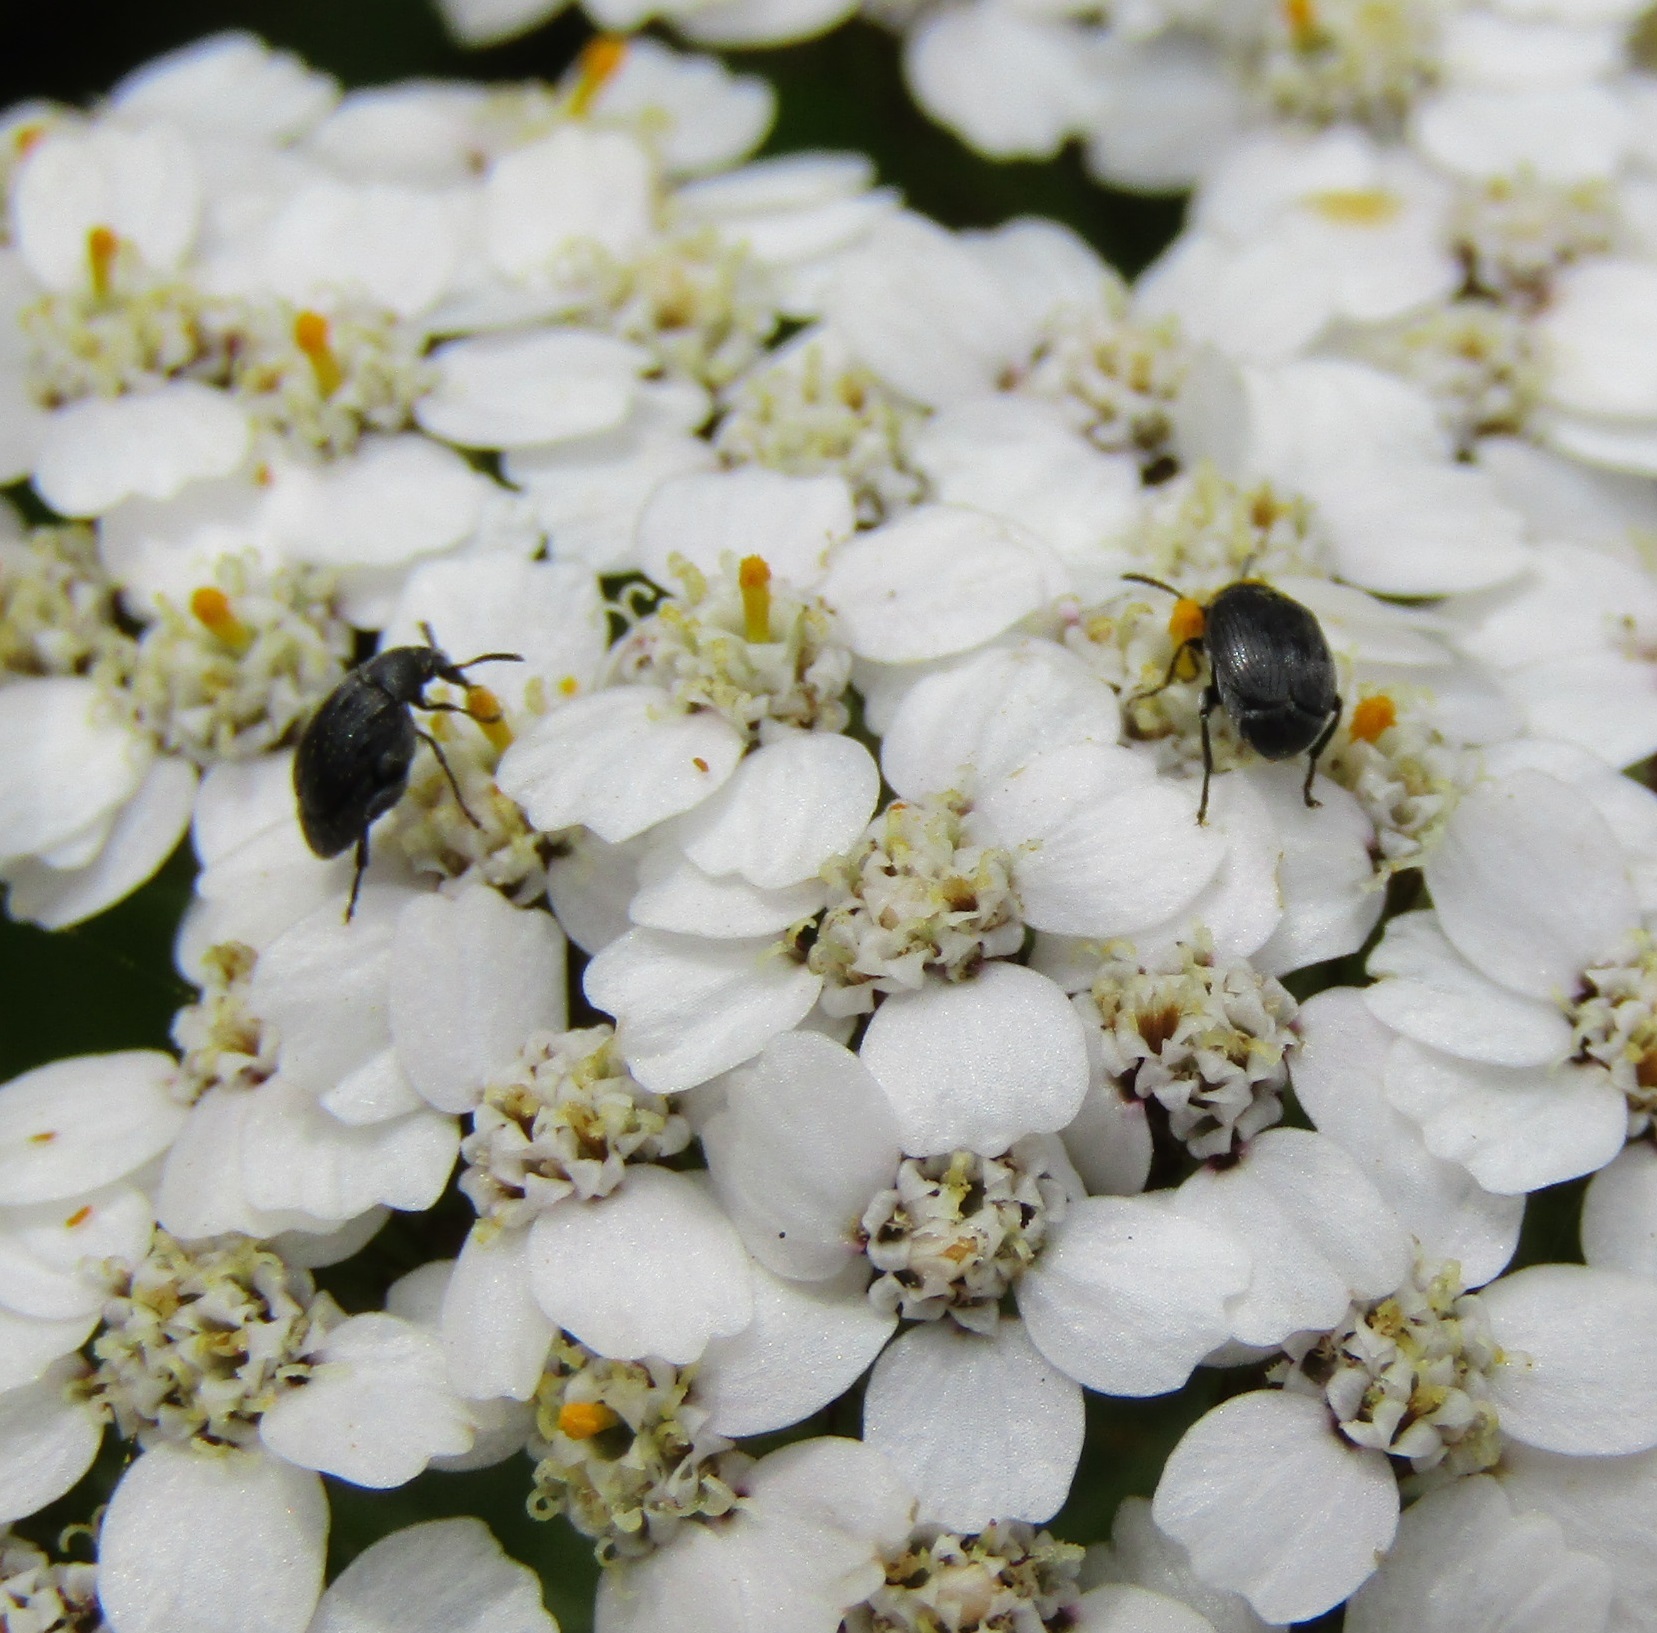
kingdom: Animalia
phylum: Arthropoda
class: Insecta
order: Coleoptera
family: Chrysomelidae
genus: Bruchidius
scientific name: Bruchidius villosus
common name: Scotch broom bruchid
